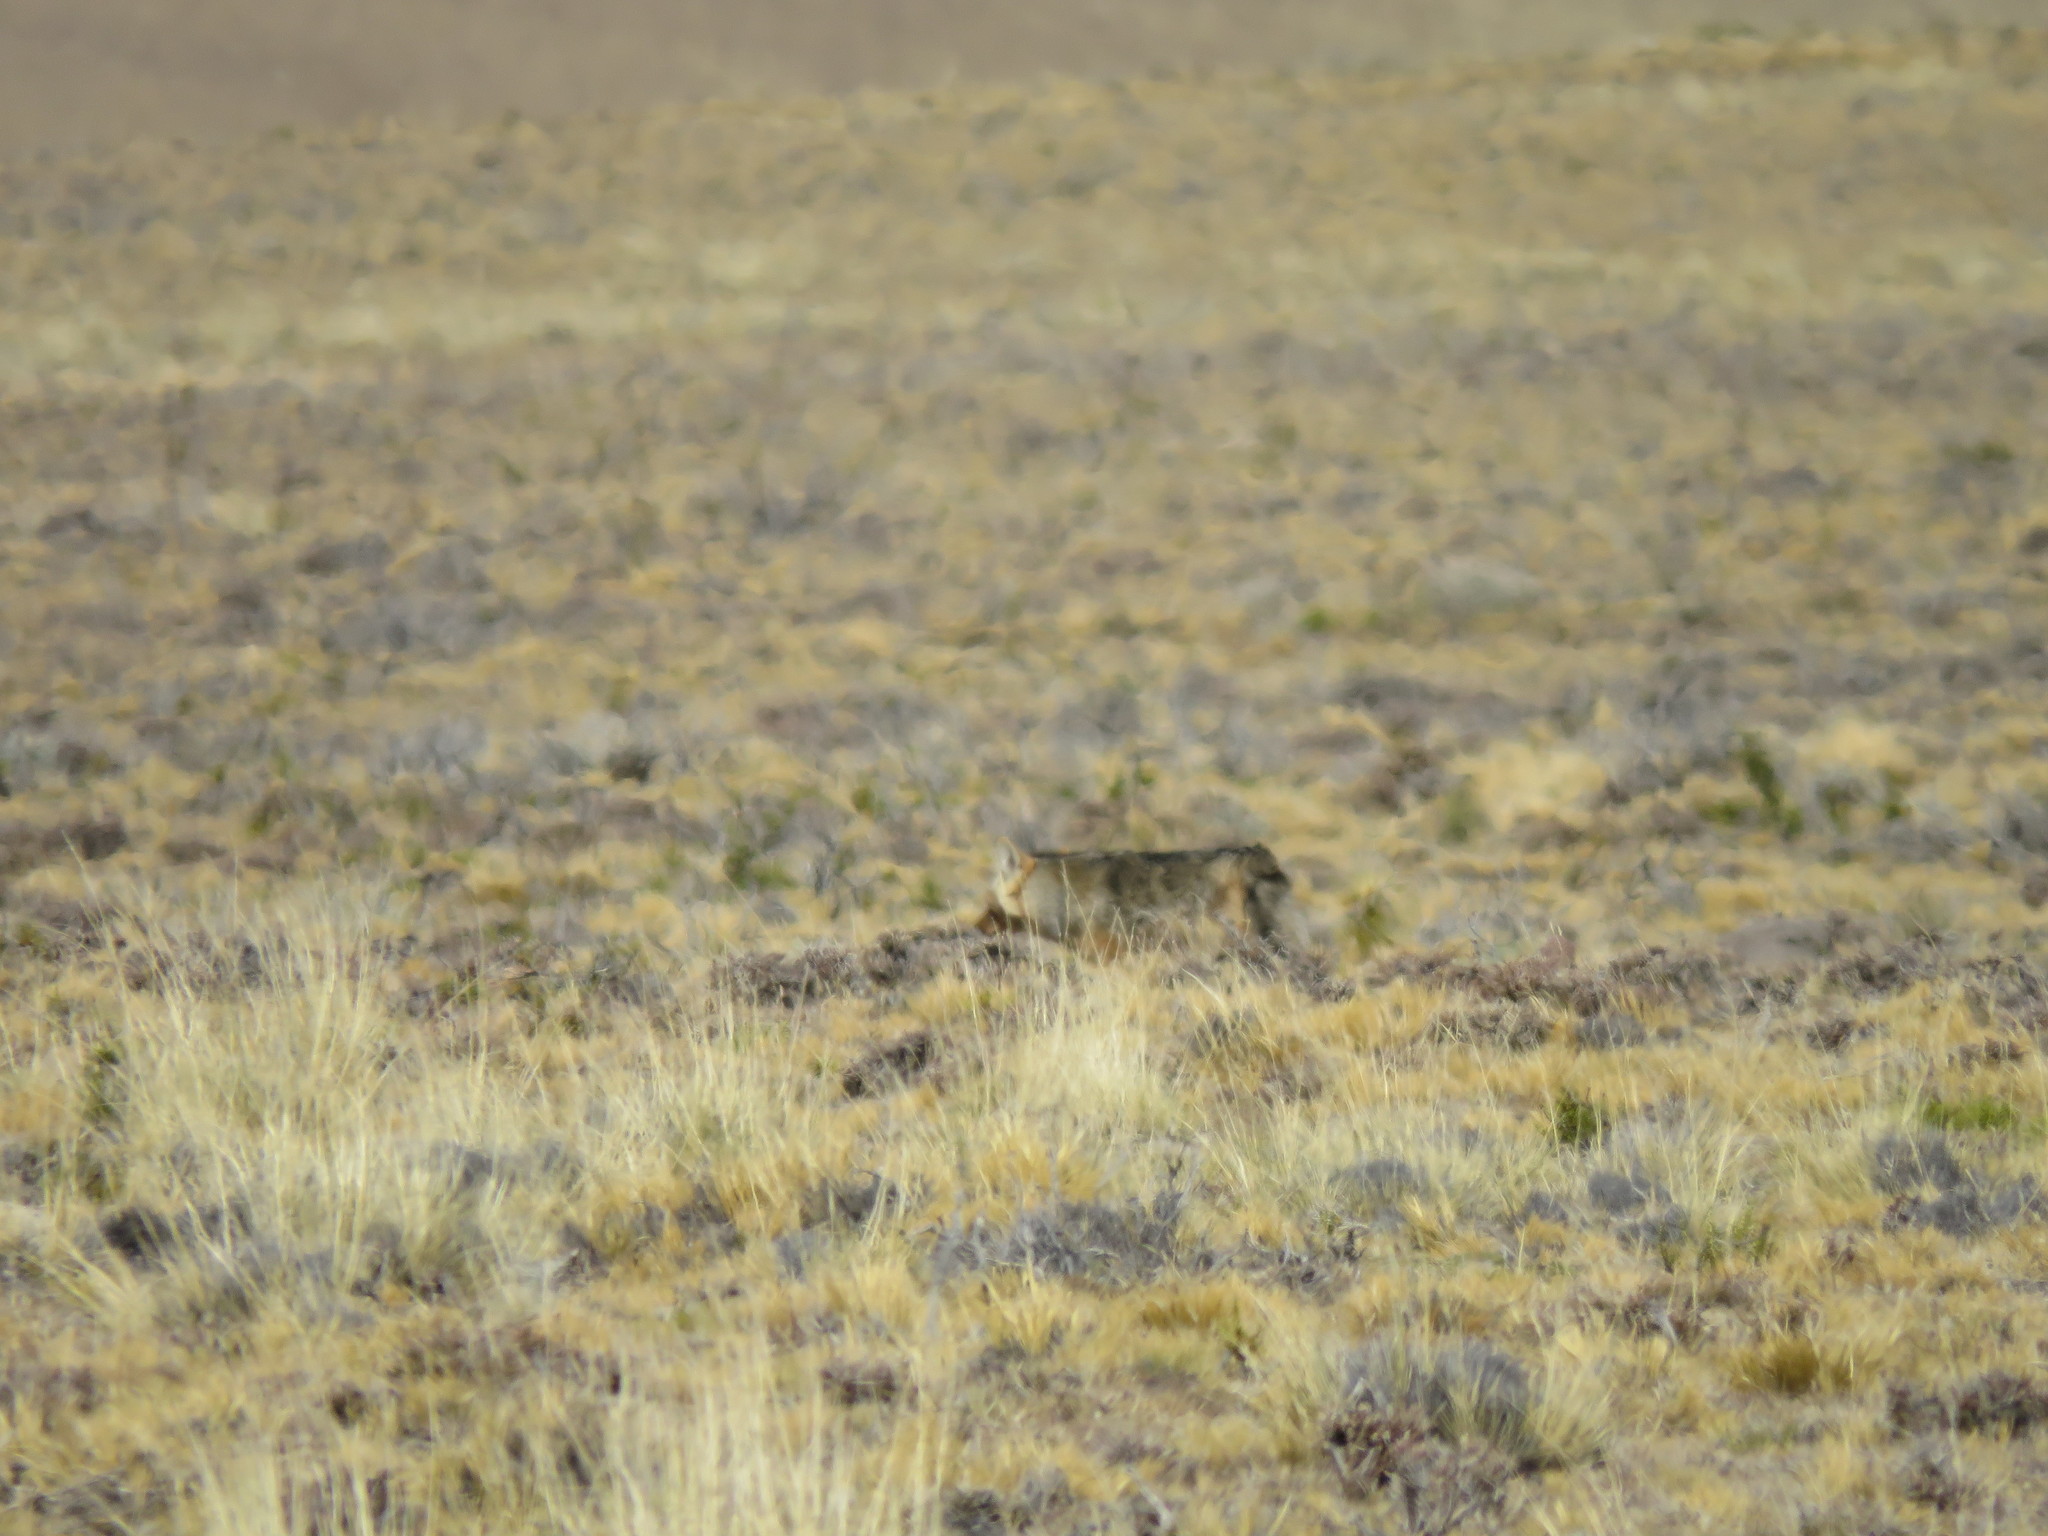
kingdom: Animalia
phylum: Chordata
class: Mammalia
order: Carnivora
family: Canidae
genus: Lycalopex
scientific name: Lycalopex culpaeus
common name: Culpeo
